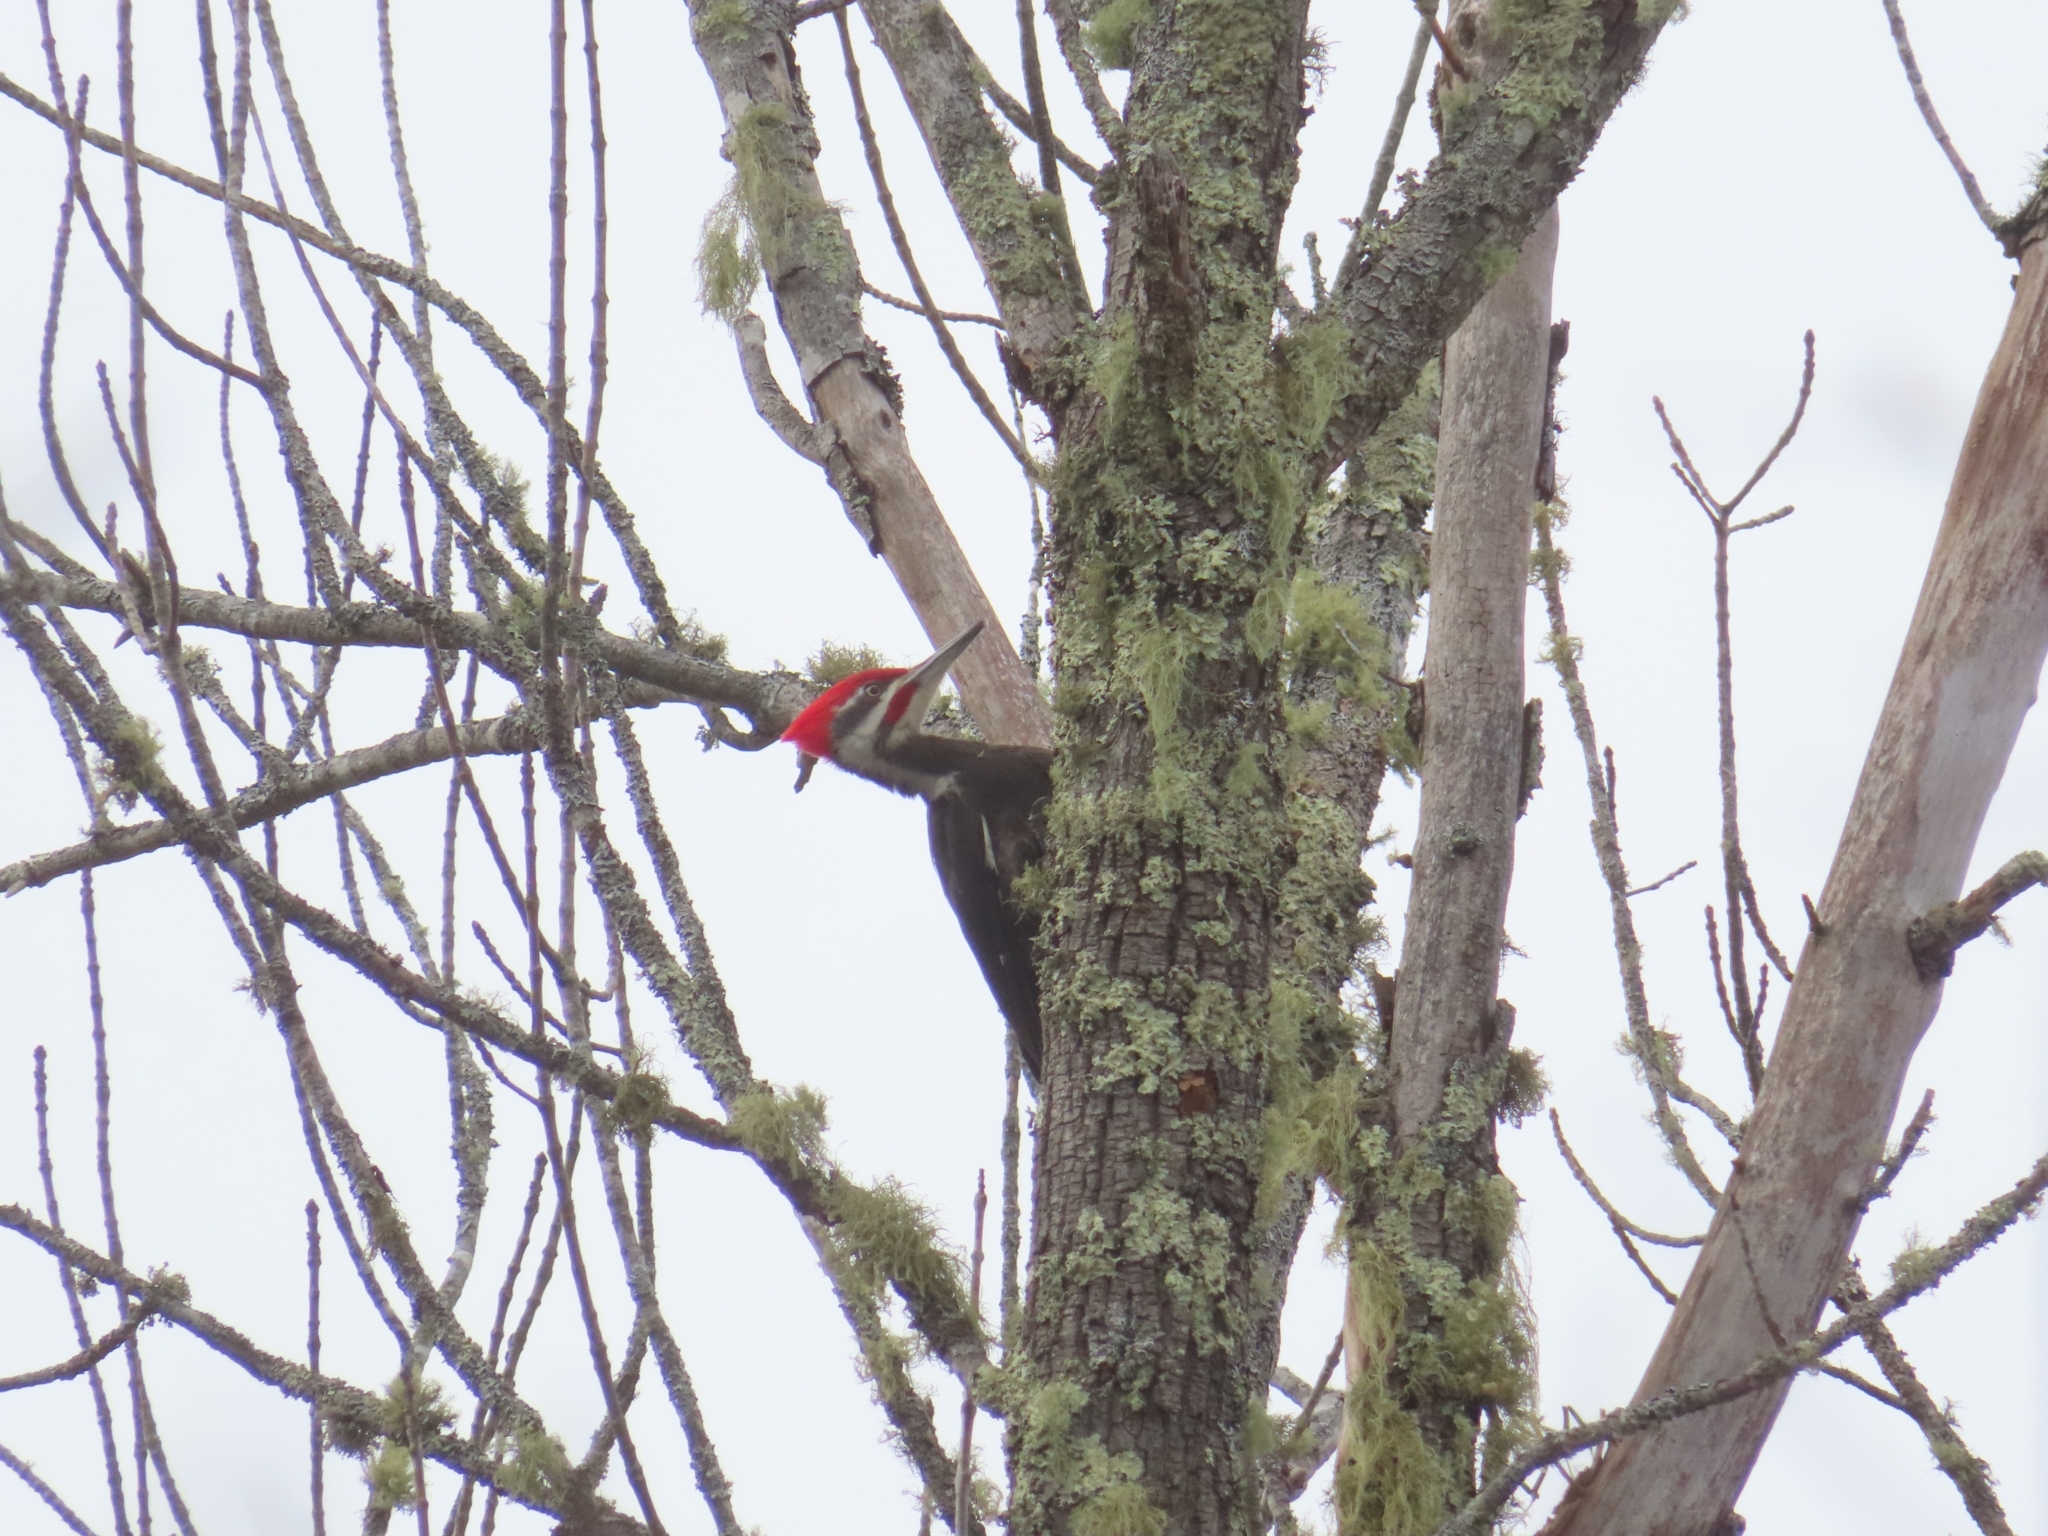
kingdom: Animalia
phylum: Chordata
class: Aves
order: Piciformes
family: Picidae
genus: Dryocopus
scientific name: Dryocopus pileatus
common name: Pileated woodpecker
